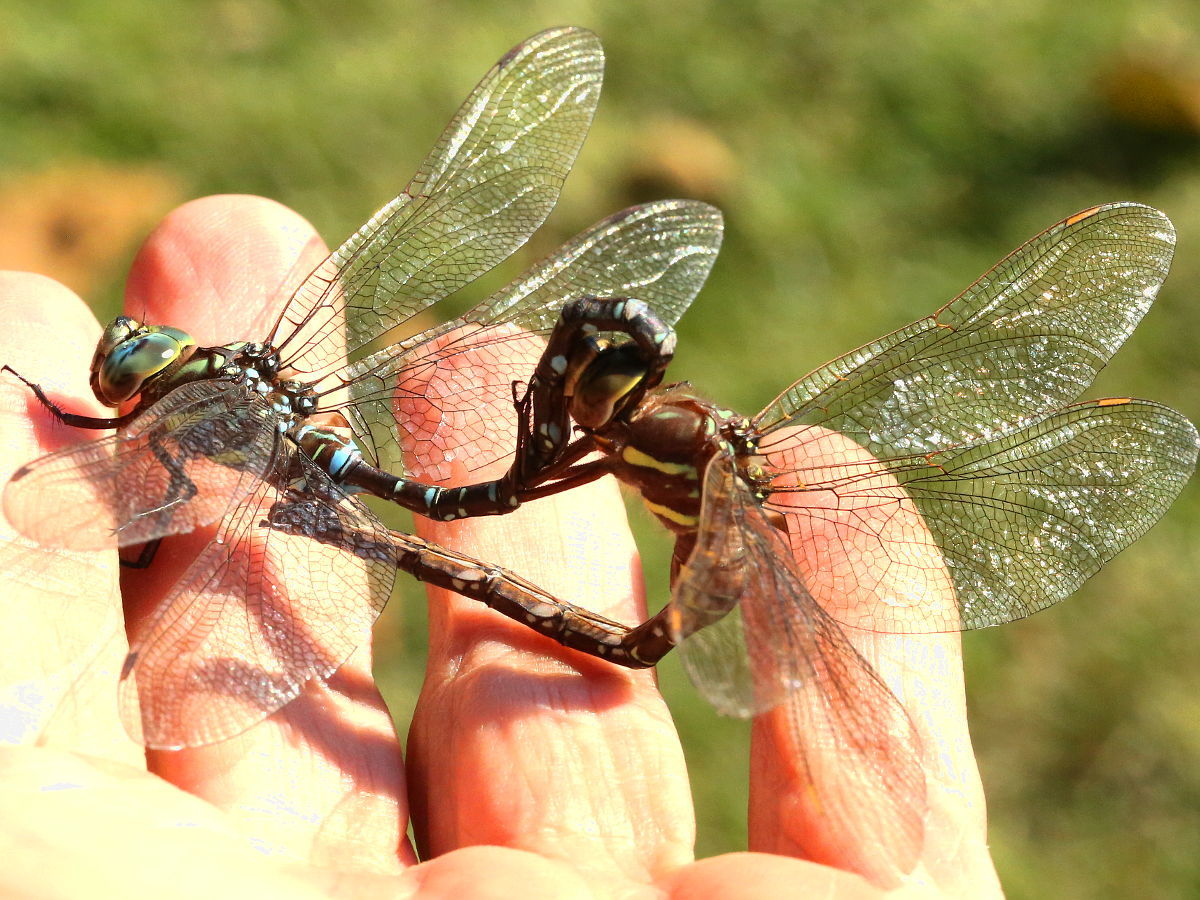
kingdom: Animalia
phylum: Arthropoda
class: Insecta
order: Odonata
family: Aeshnidae
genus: Aeshna
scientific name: Aeshna umbrosa
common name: Shadow darner
